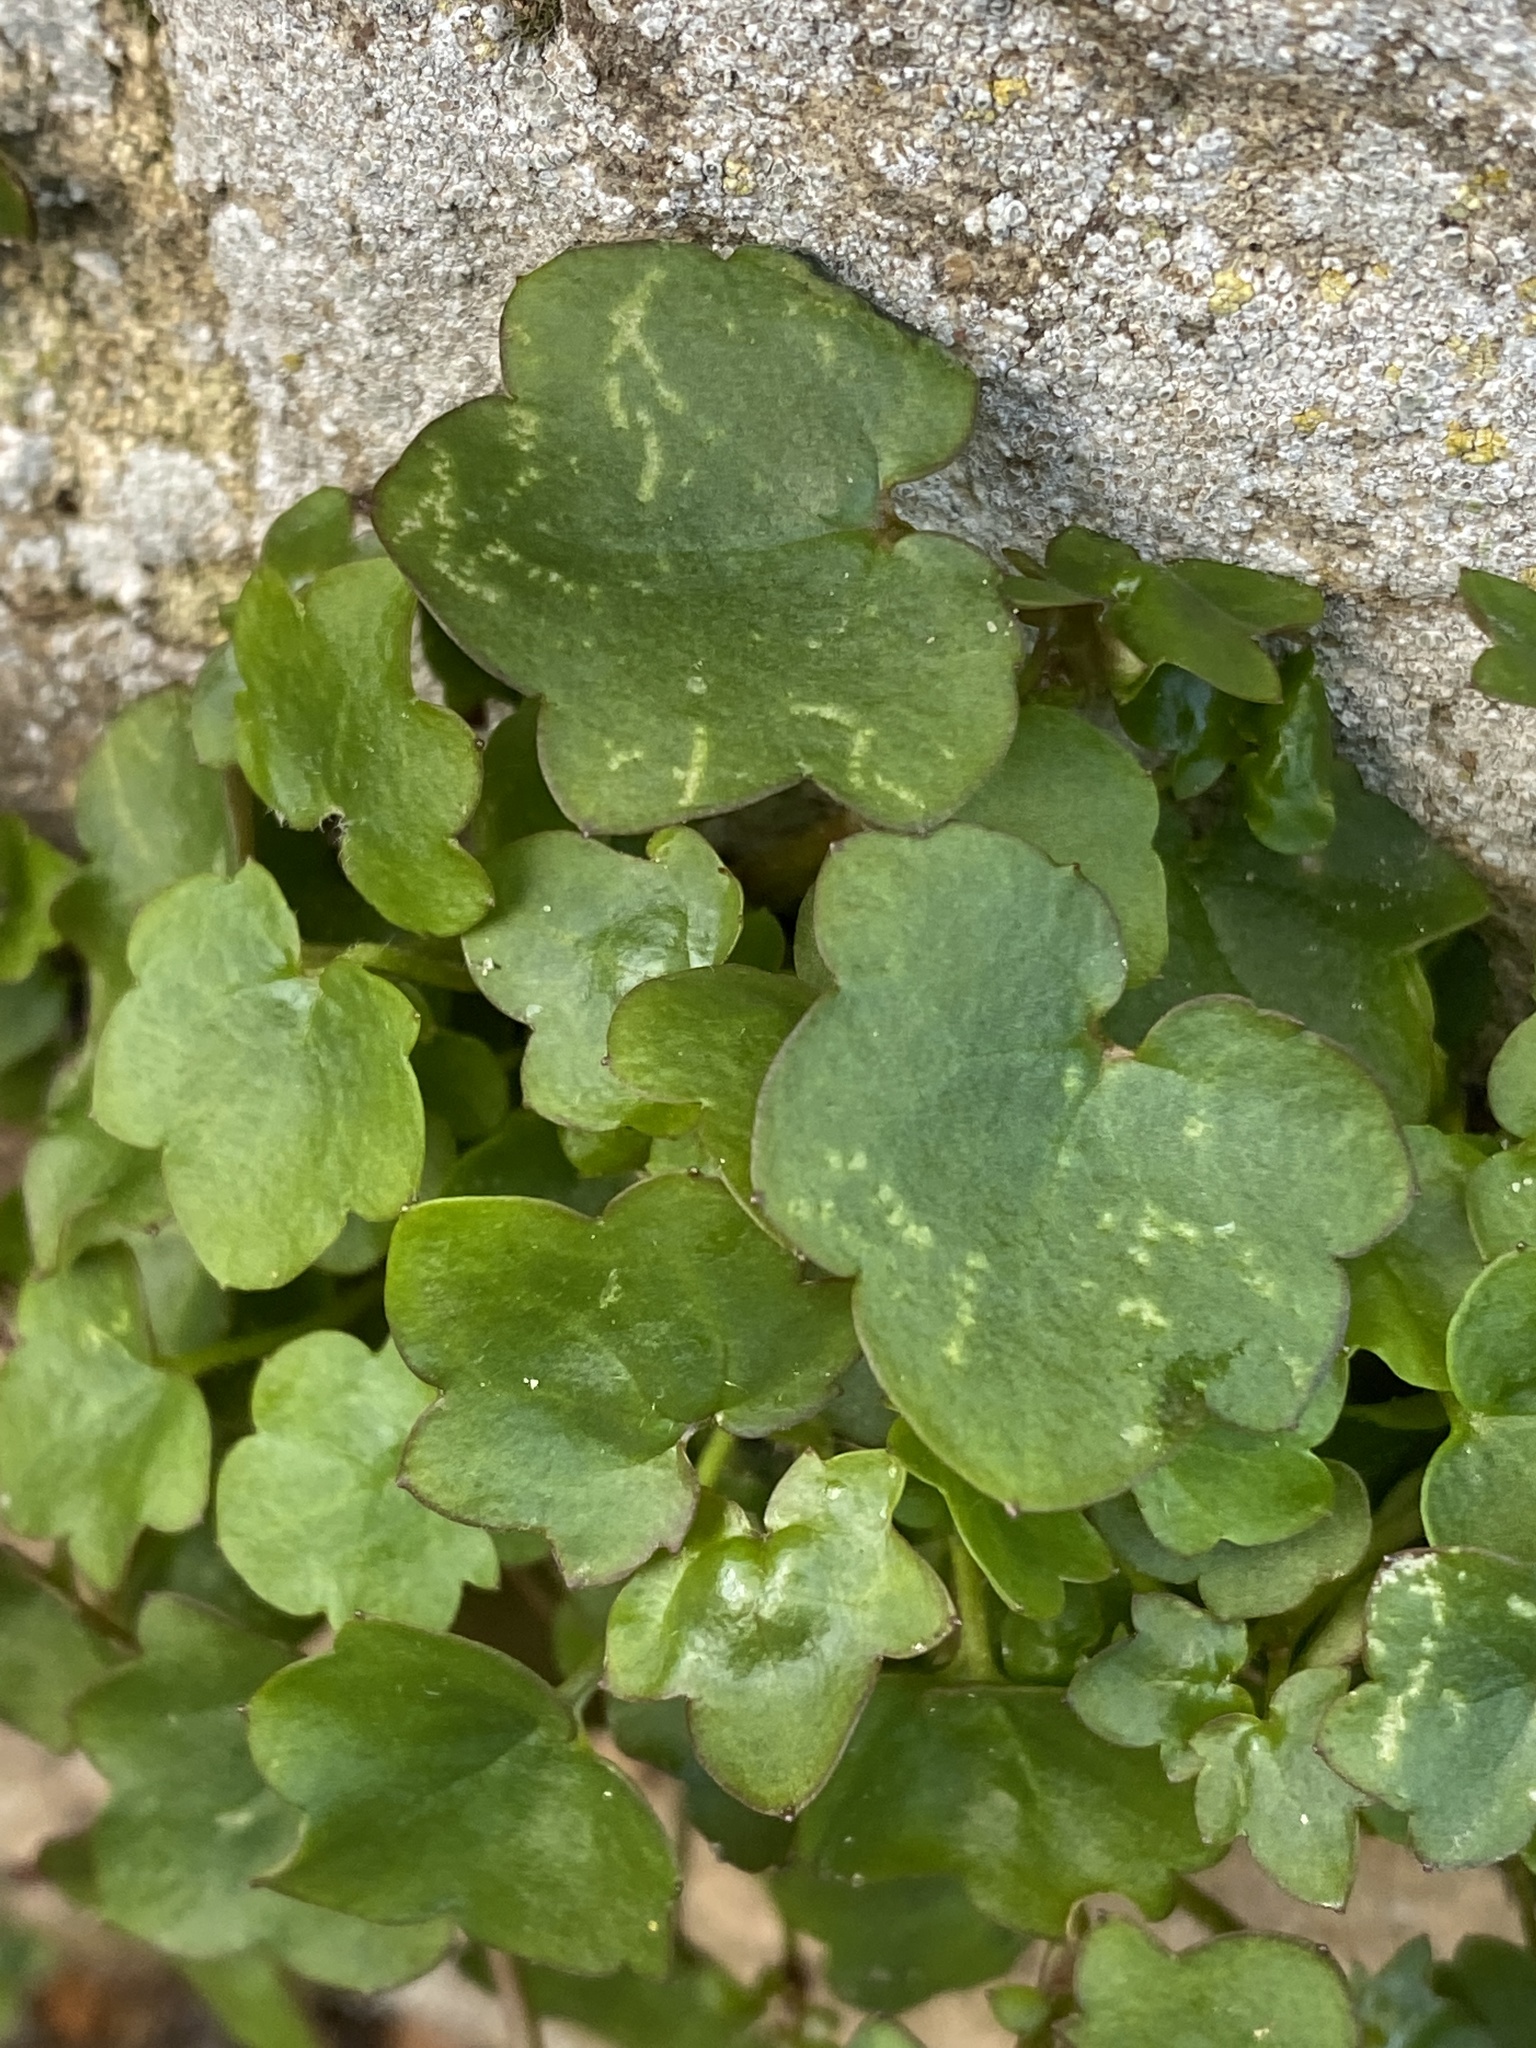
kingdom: Plantae
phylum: Tracheophyta
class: Magnoliopsida
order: Lamiales
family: Plantaginaceae
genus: Cymbalaria
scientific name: Cymbalaria muralis
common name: Ivy-leaved toadflax
